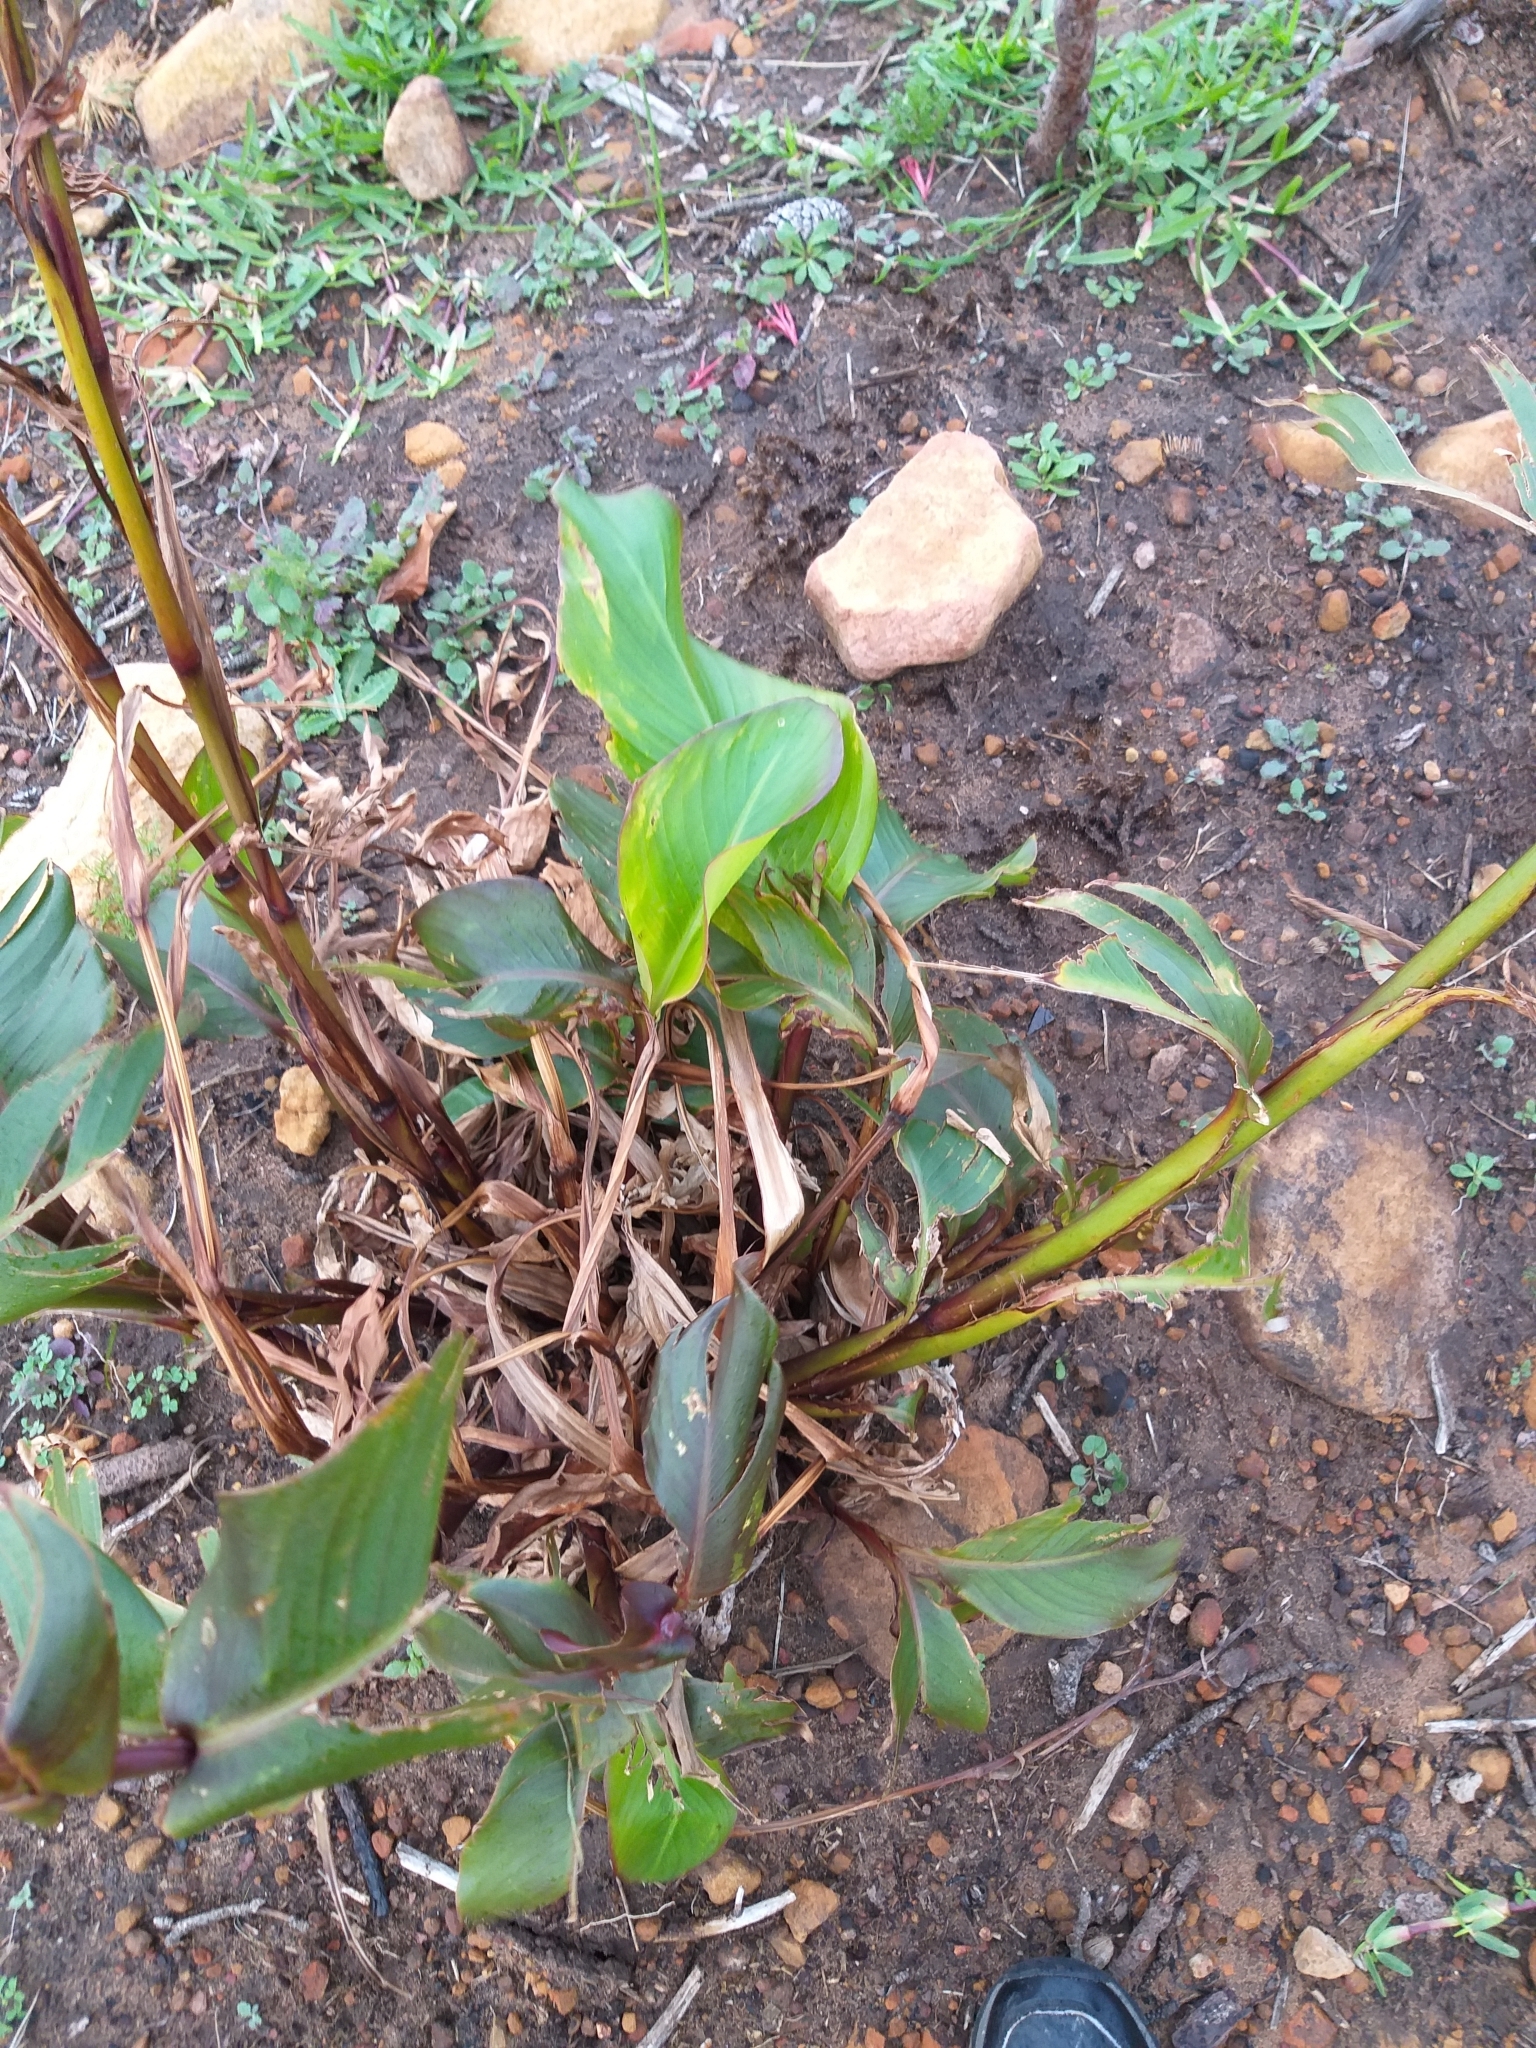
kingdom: Plantae
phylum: Tracheophyta
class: Liliopsida
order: Zingiberales
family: Cannaceae
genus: Canna
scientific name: Canna indica
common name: Indian shot
